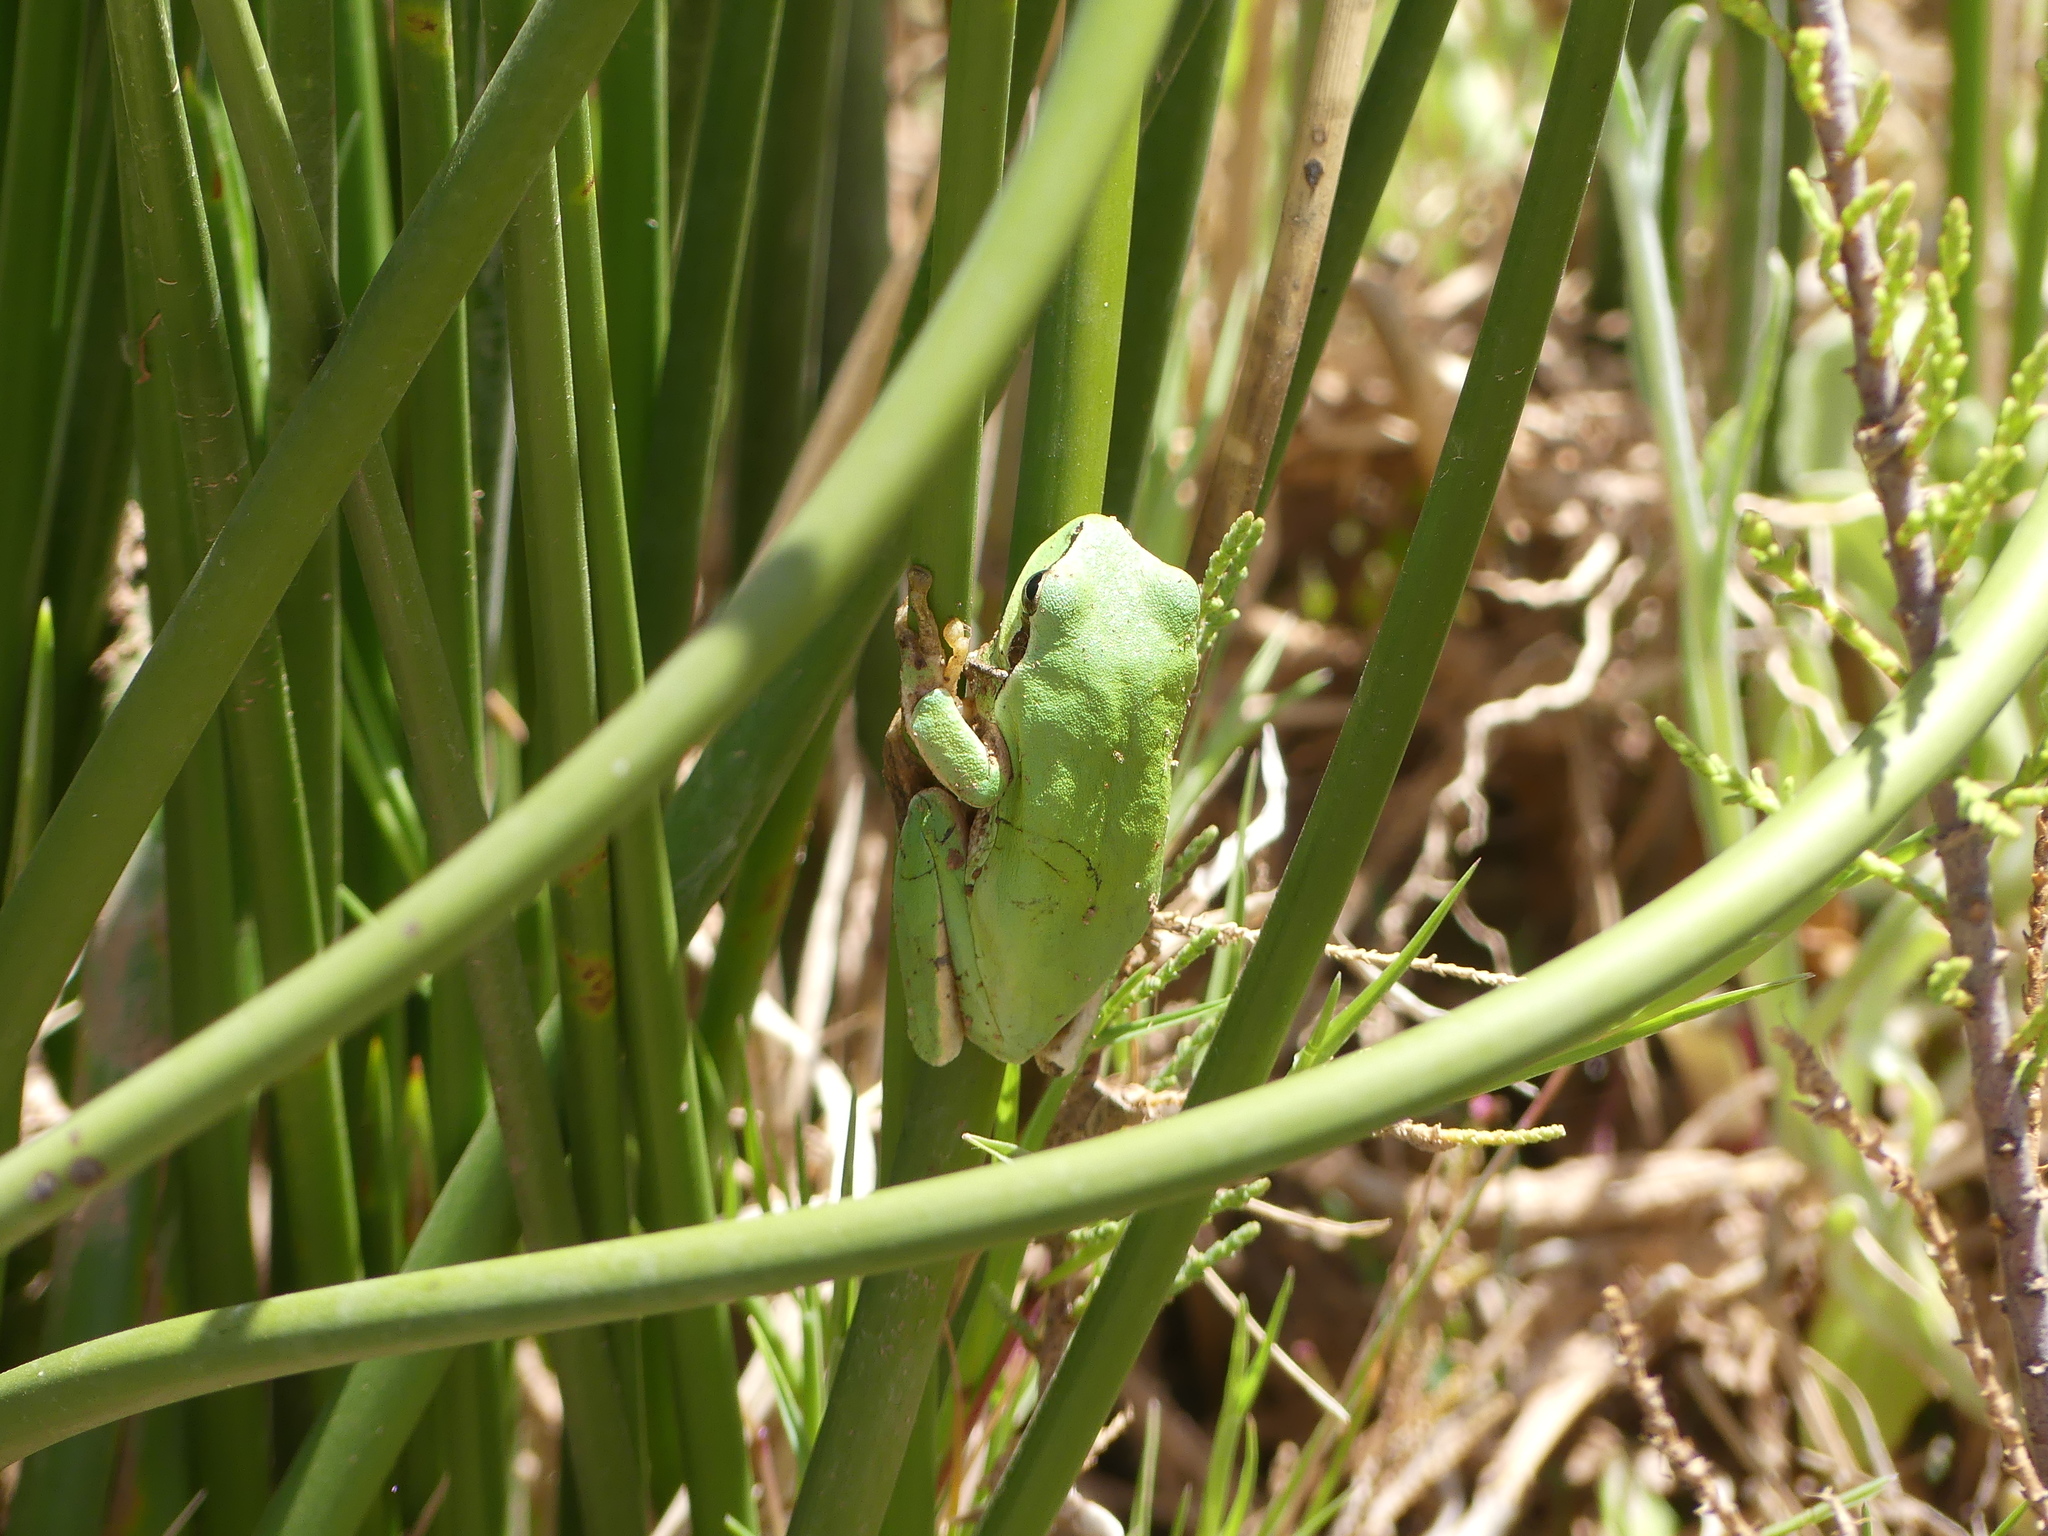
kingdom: Animalia
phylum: Chordata
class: Amphibia
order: Anura
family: Hylidae
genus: Hyla
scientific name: Hyla meridionalis
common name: Stripeless tree frog
